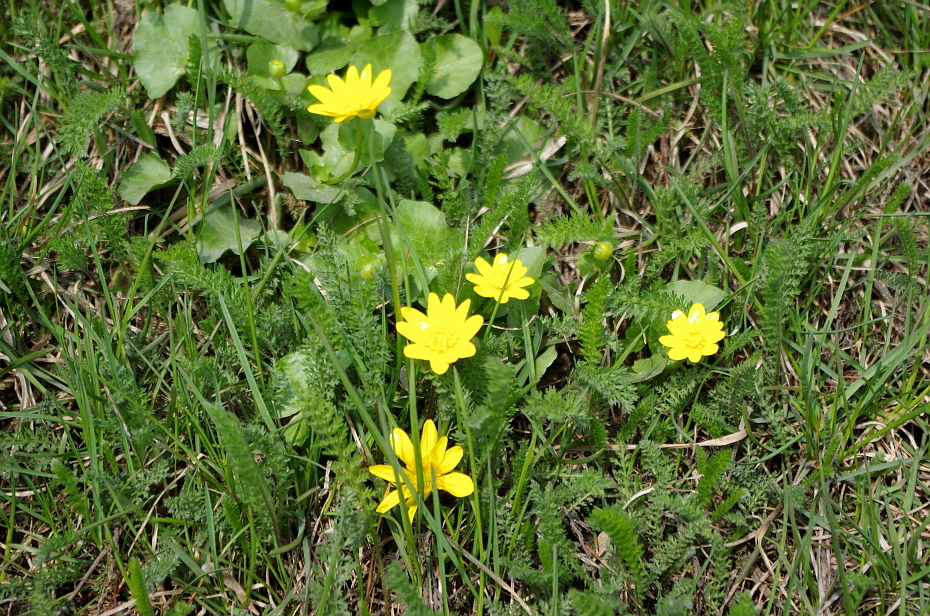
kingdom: Plantae
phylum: Tracheophyta
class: Magnoliopsida
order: Ranunculales
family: Ranunculaceae
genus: Ficaria
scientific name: Ficaria verna
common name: Lesser celandine
